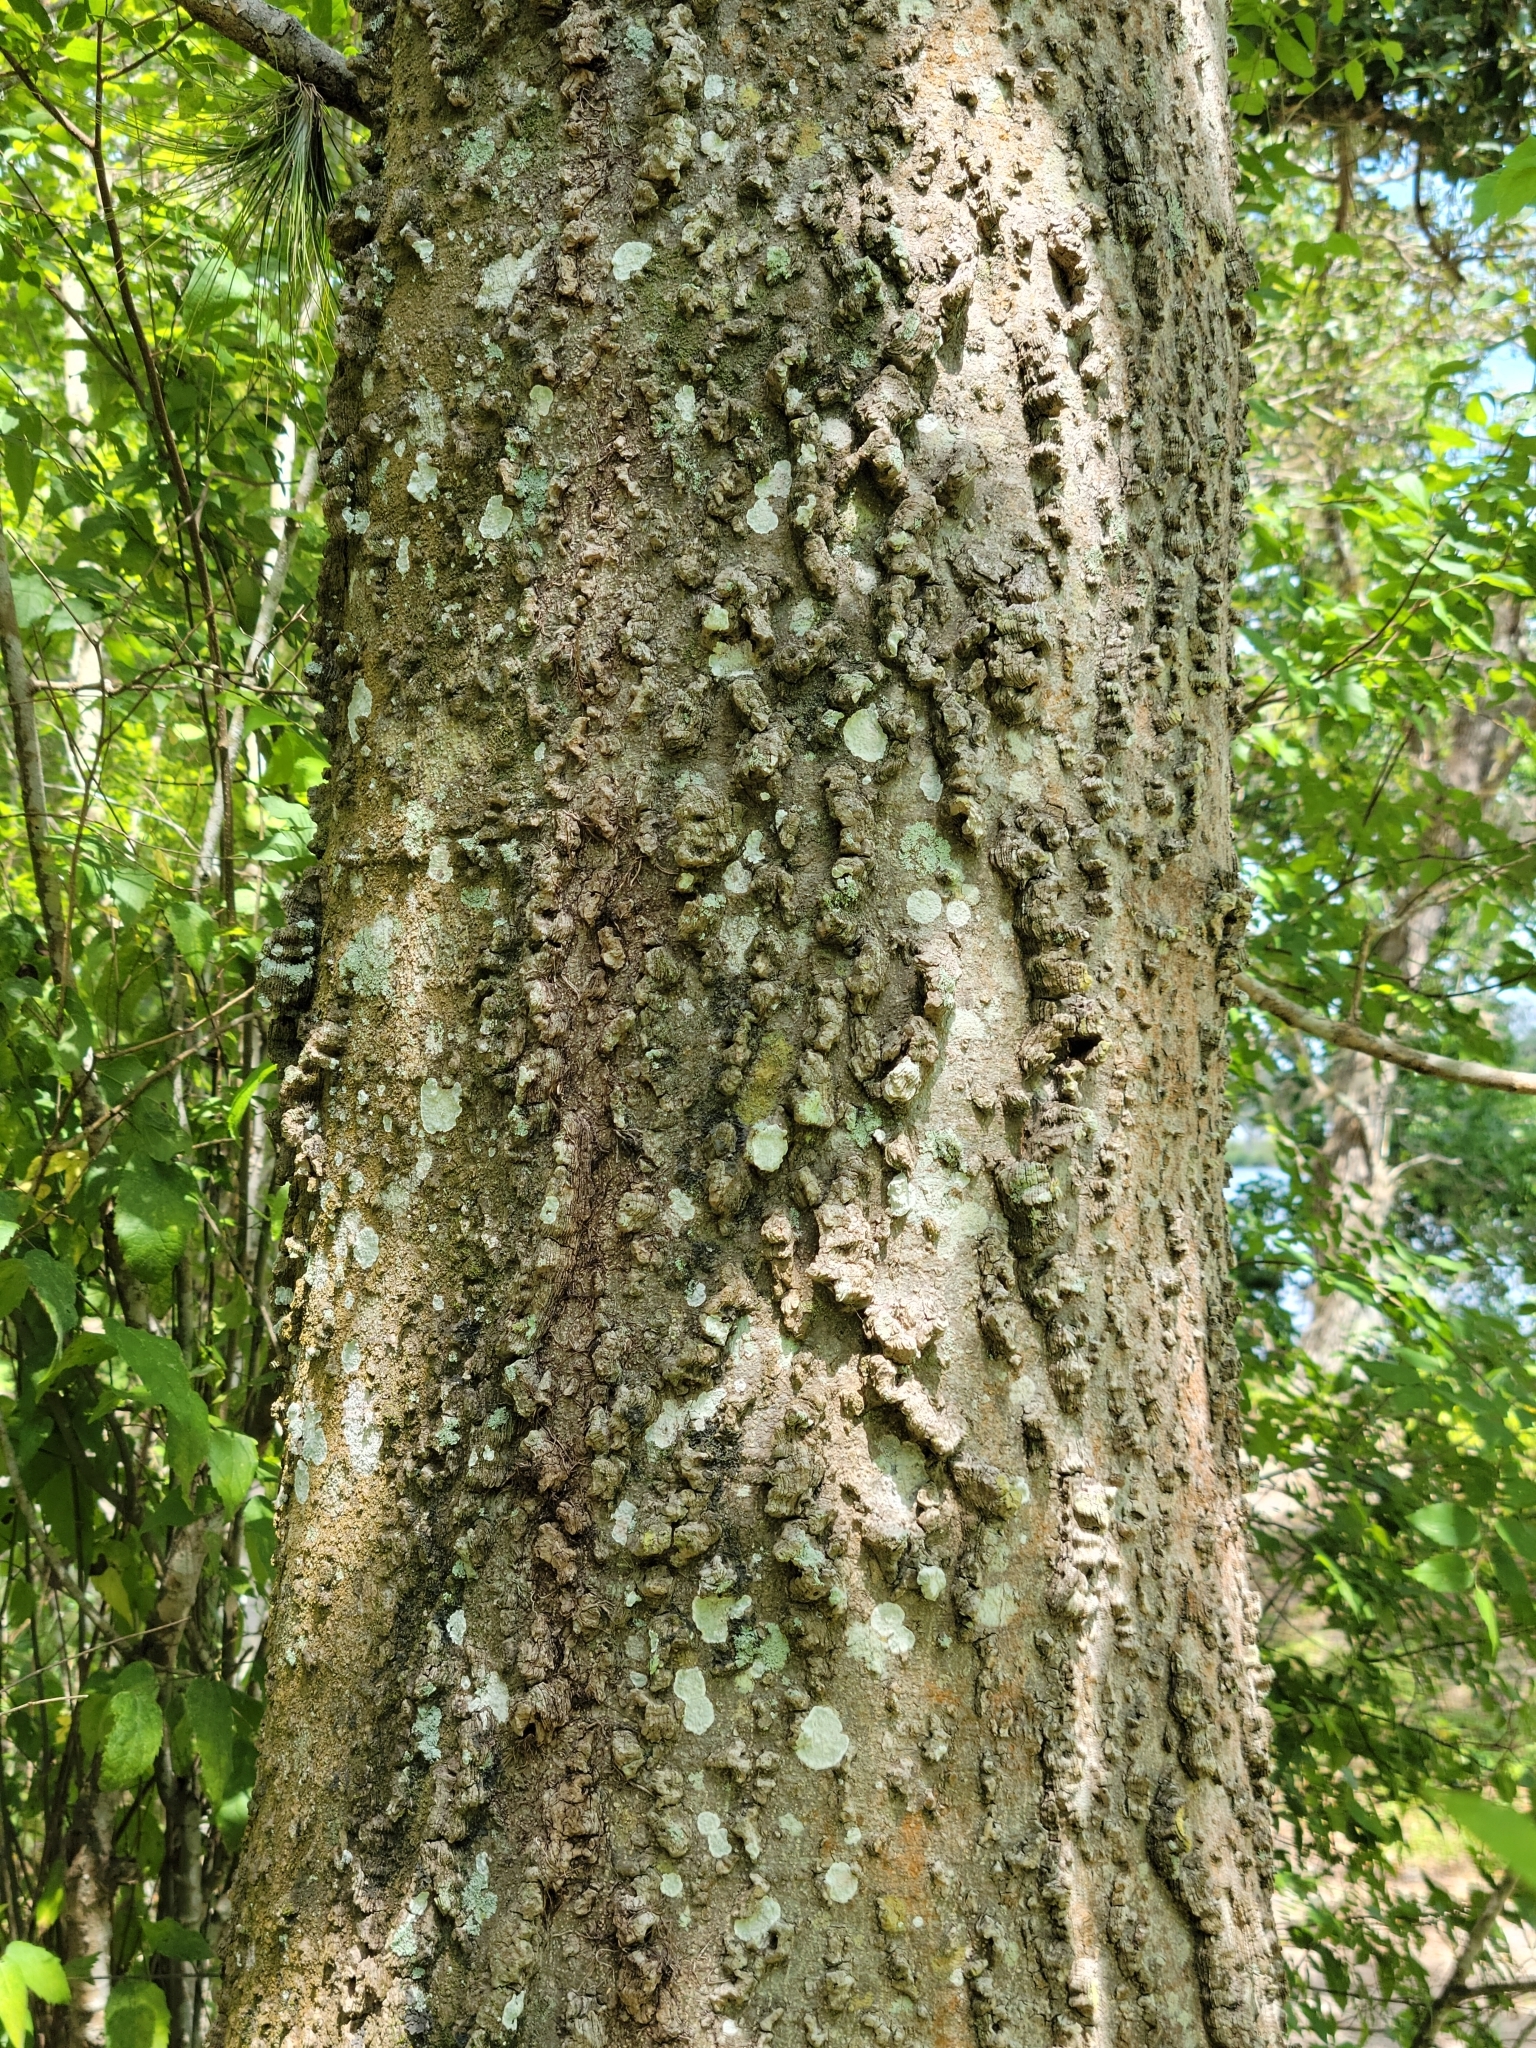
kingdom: Plantae
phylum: Tracheophyta
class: Magnoliopsida
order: Rosales
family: Cannabaceae
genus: Celtis
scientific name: Celtis laevigata
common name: Sugarberry
